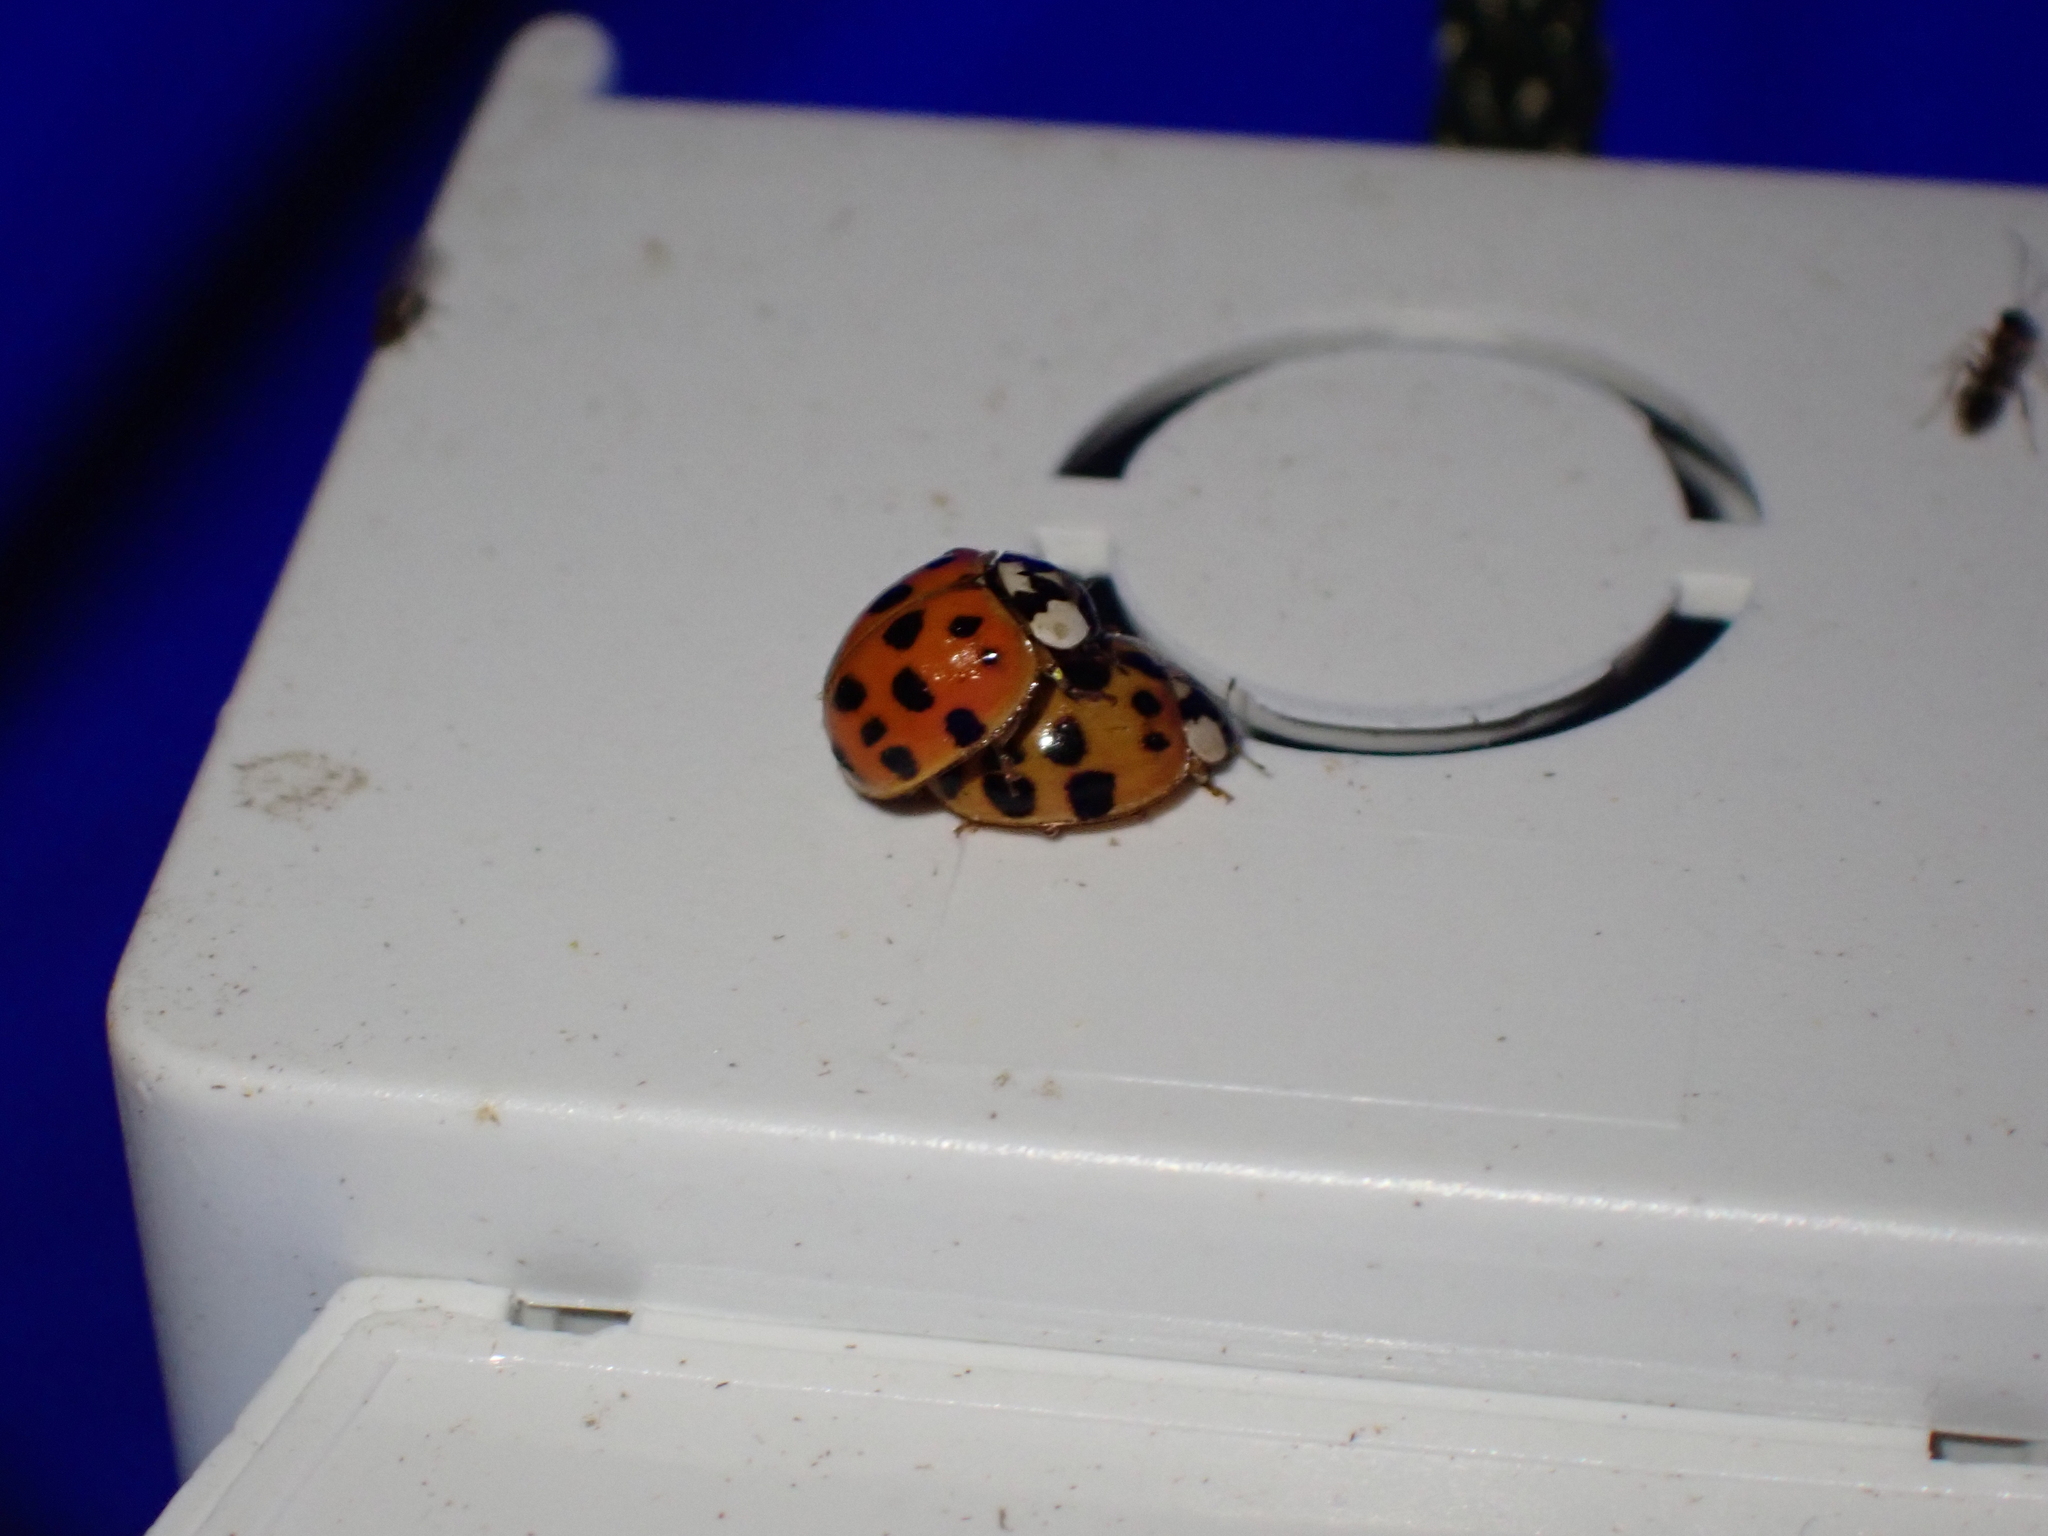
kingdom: Animalia
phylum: Arthropoda
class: Insecta
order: Coleoptera
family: Coccinellidae
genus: Harmonia
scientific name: Harmonia axyridis
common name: Harlequin ladybird
